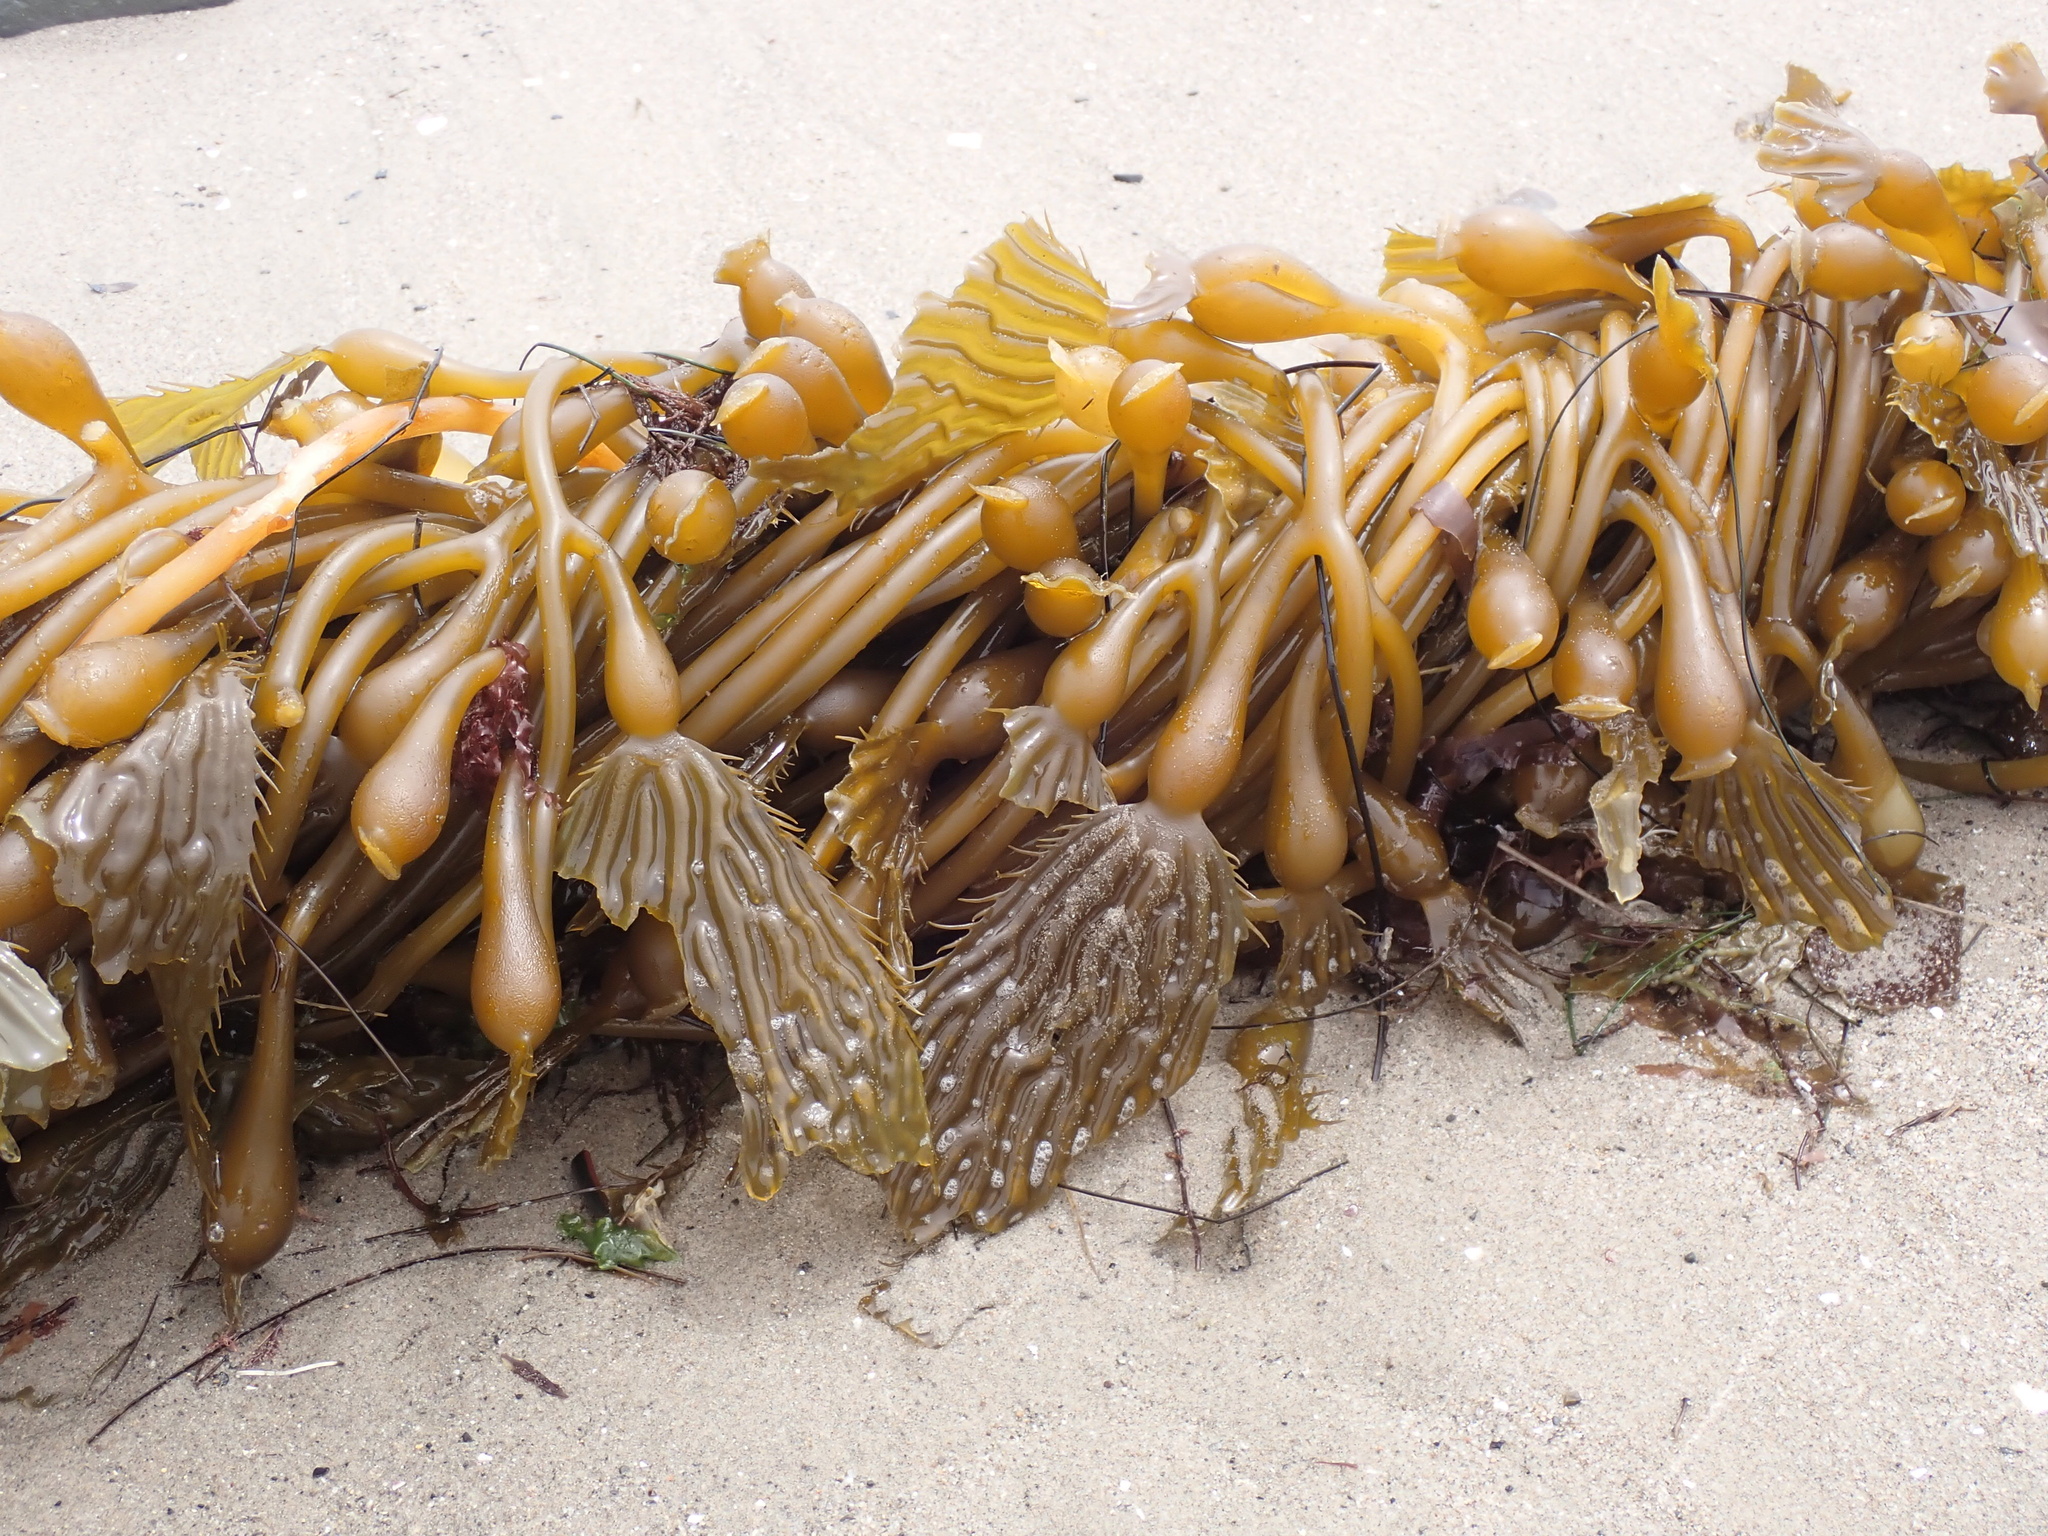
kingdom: Chromista
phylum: Ochrophyta
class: Phaeophyceae
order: Laminariales
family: Laminariaceae
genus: Macrocystis
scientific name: Macrocystis pyrifera
